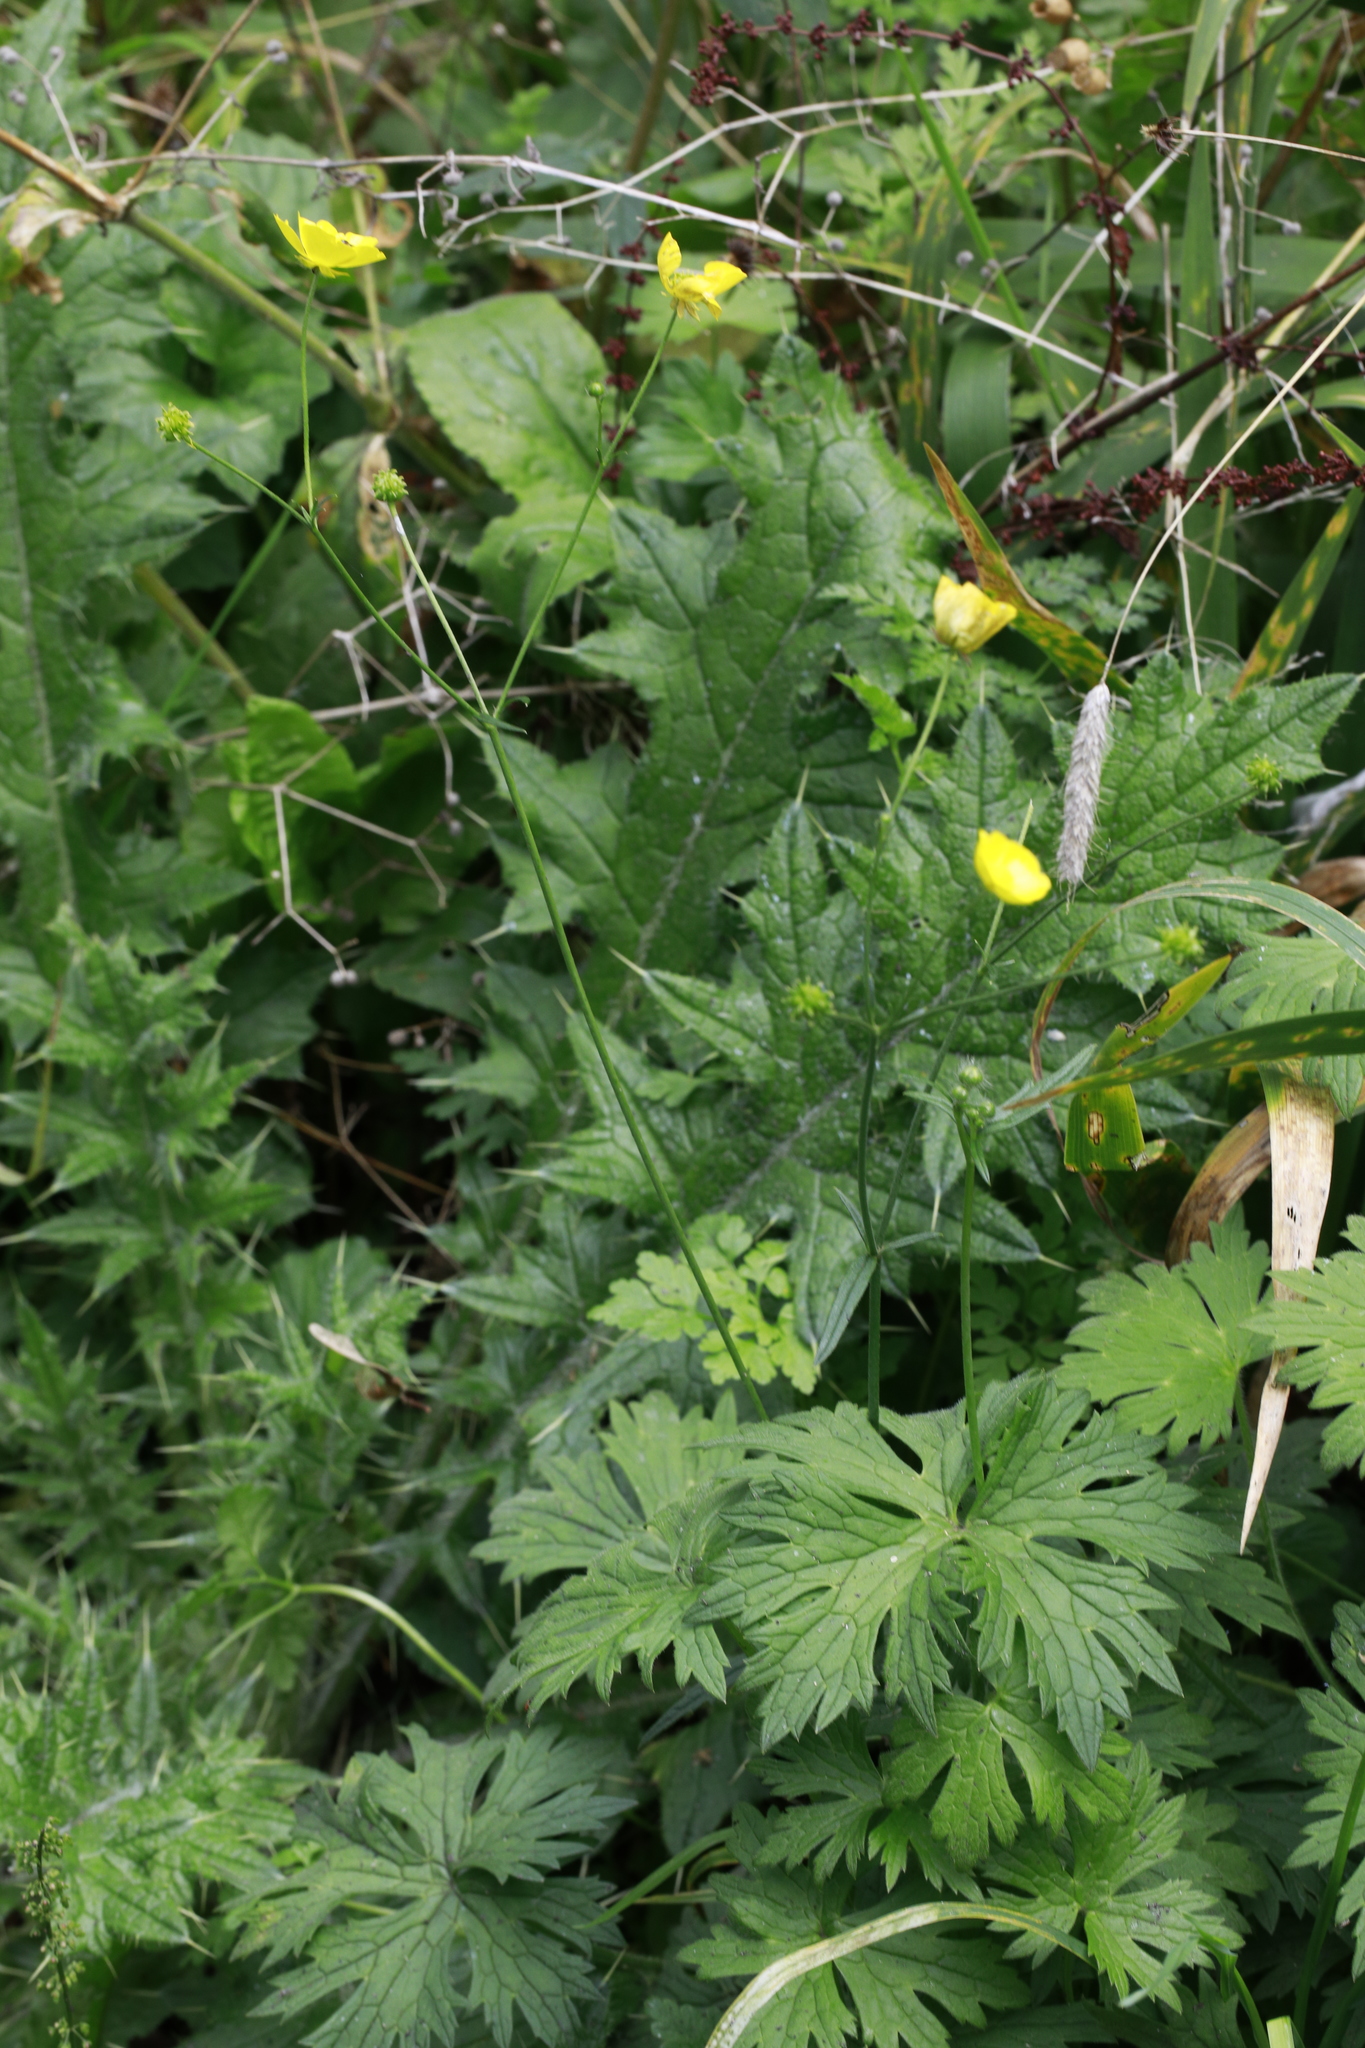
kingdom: Plantae
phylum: Tracheophyta
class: Magnoliopsida
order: Ranunculales
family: Ranunculaceae
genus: Ranunculus
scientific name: Ranunculus acris
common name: Meadow buttercup
